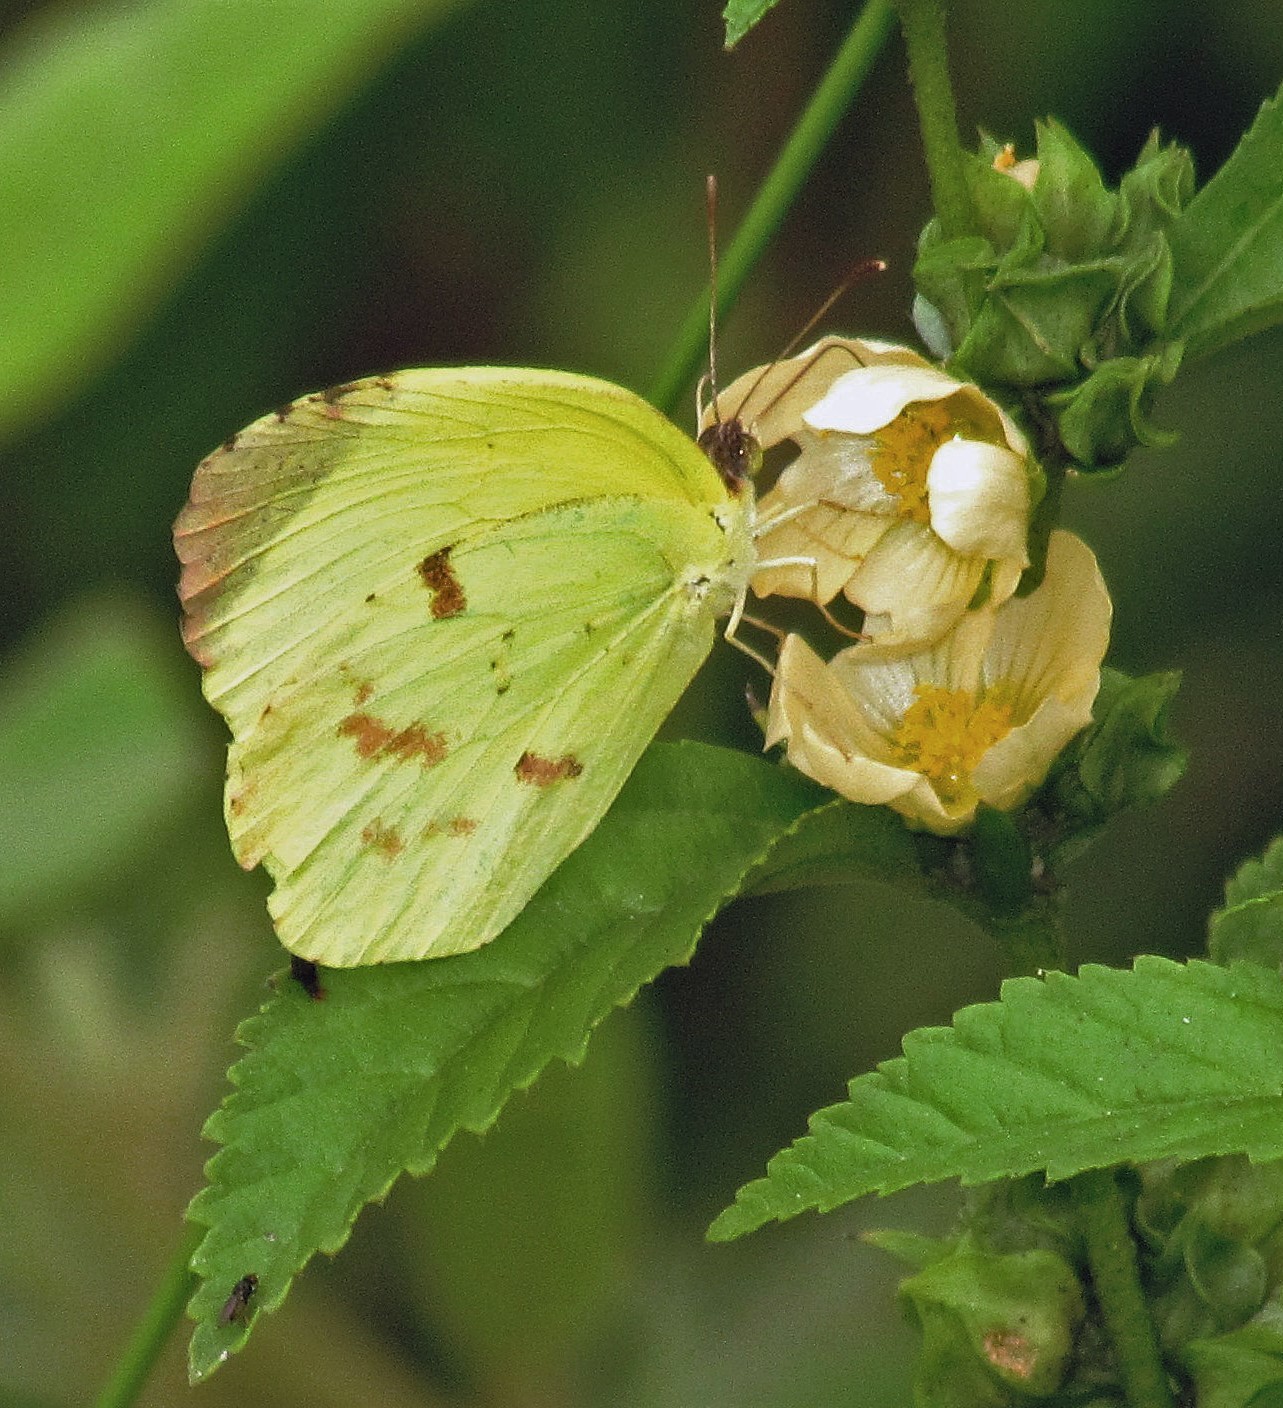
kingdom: Animalia
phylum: Arthropoda
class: Insecta
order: Lepidoptera
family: Pieridae
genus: Teriocolias
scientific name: Teriocolias
